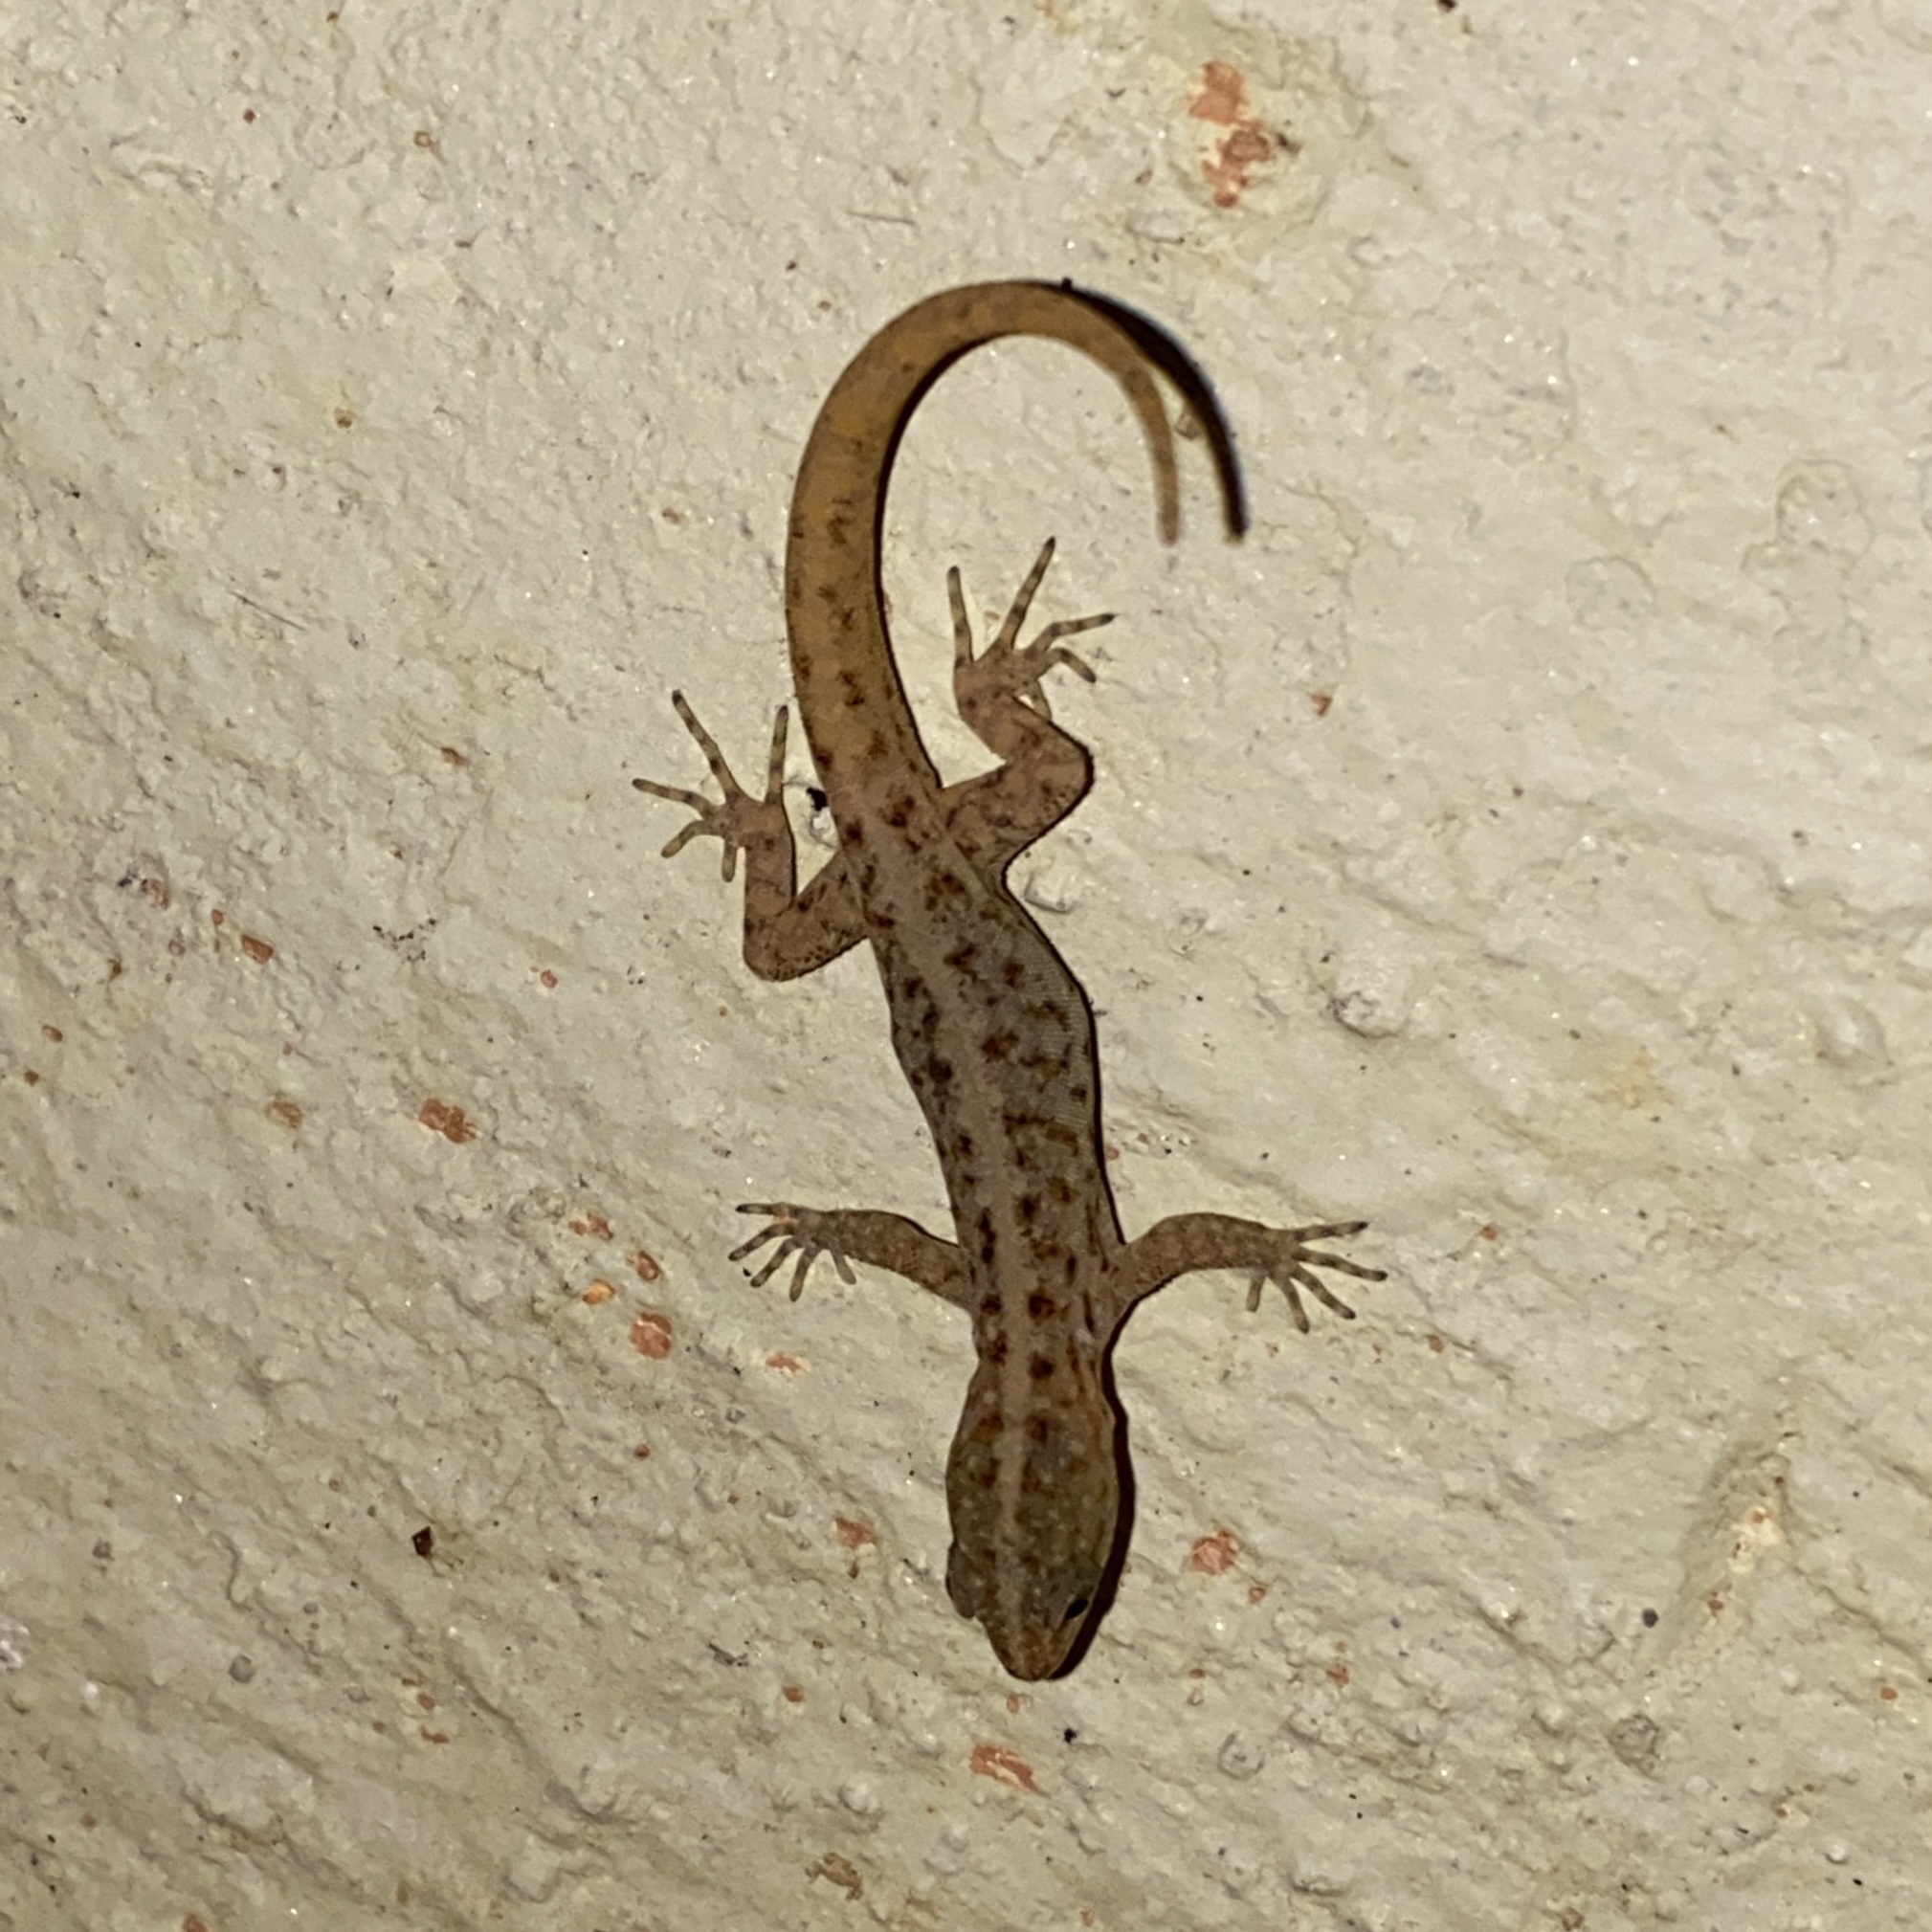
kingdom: Animalia
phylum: Chordata
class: Squamata
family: Sphaerodactylidae
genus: Gonatodes
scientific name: Gonatodes vittatus
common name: Wiegmann's striped gecko
